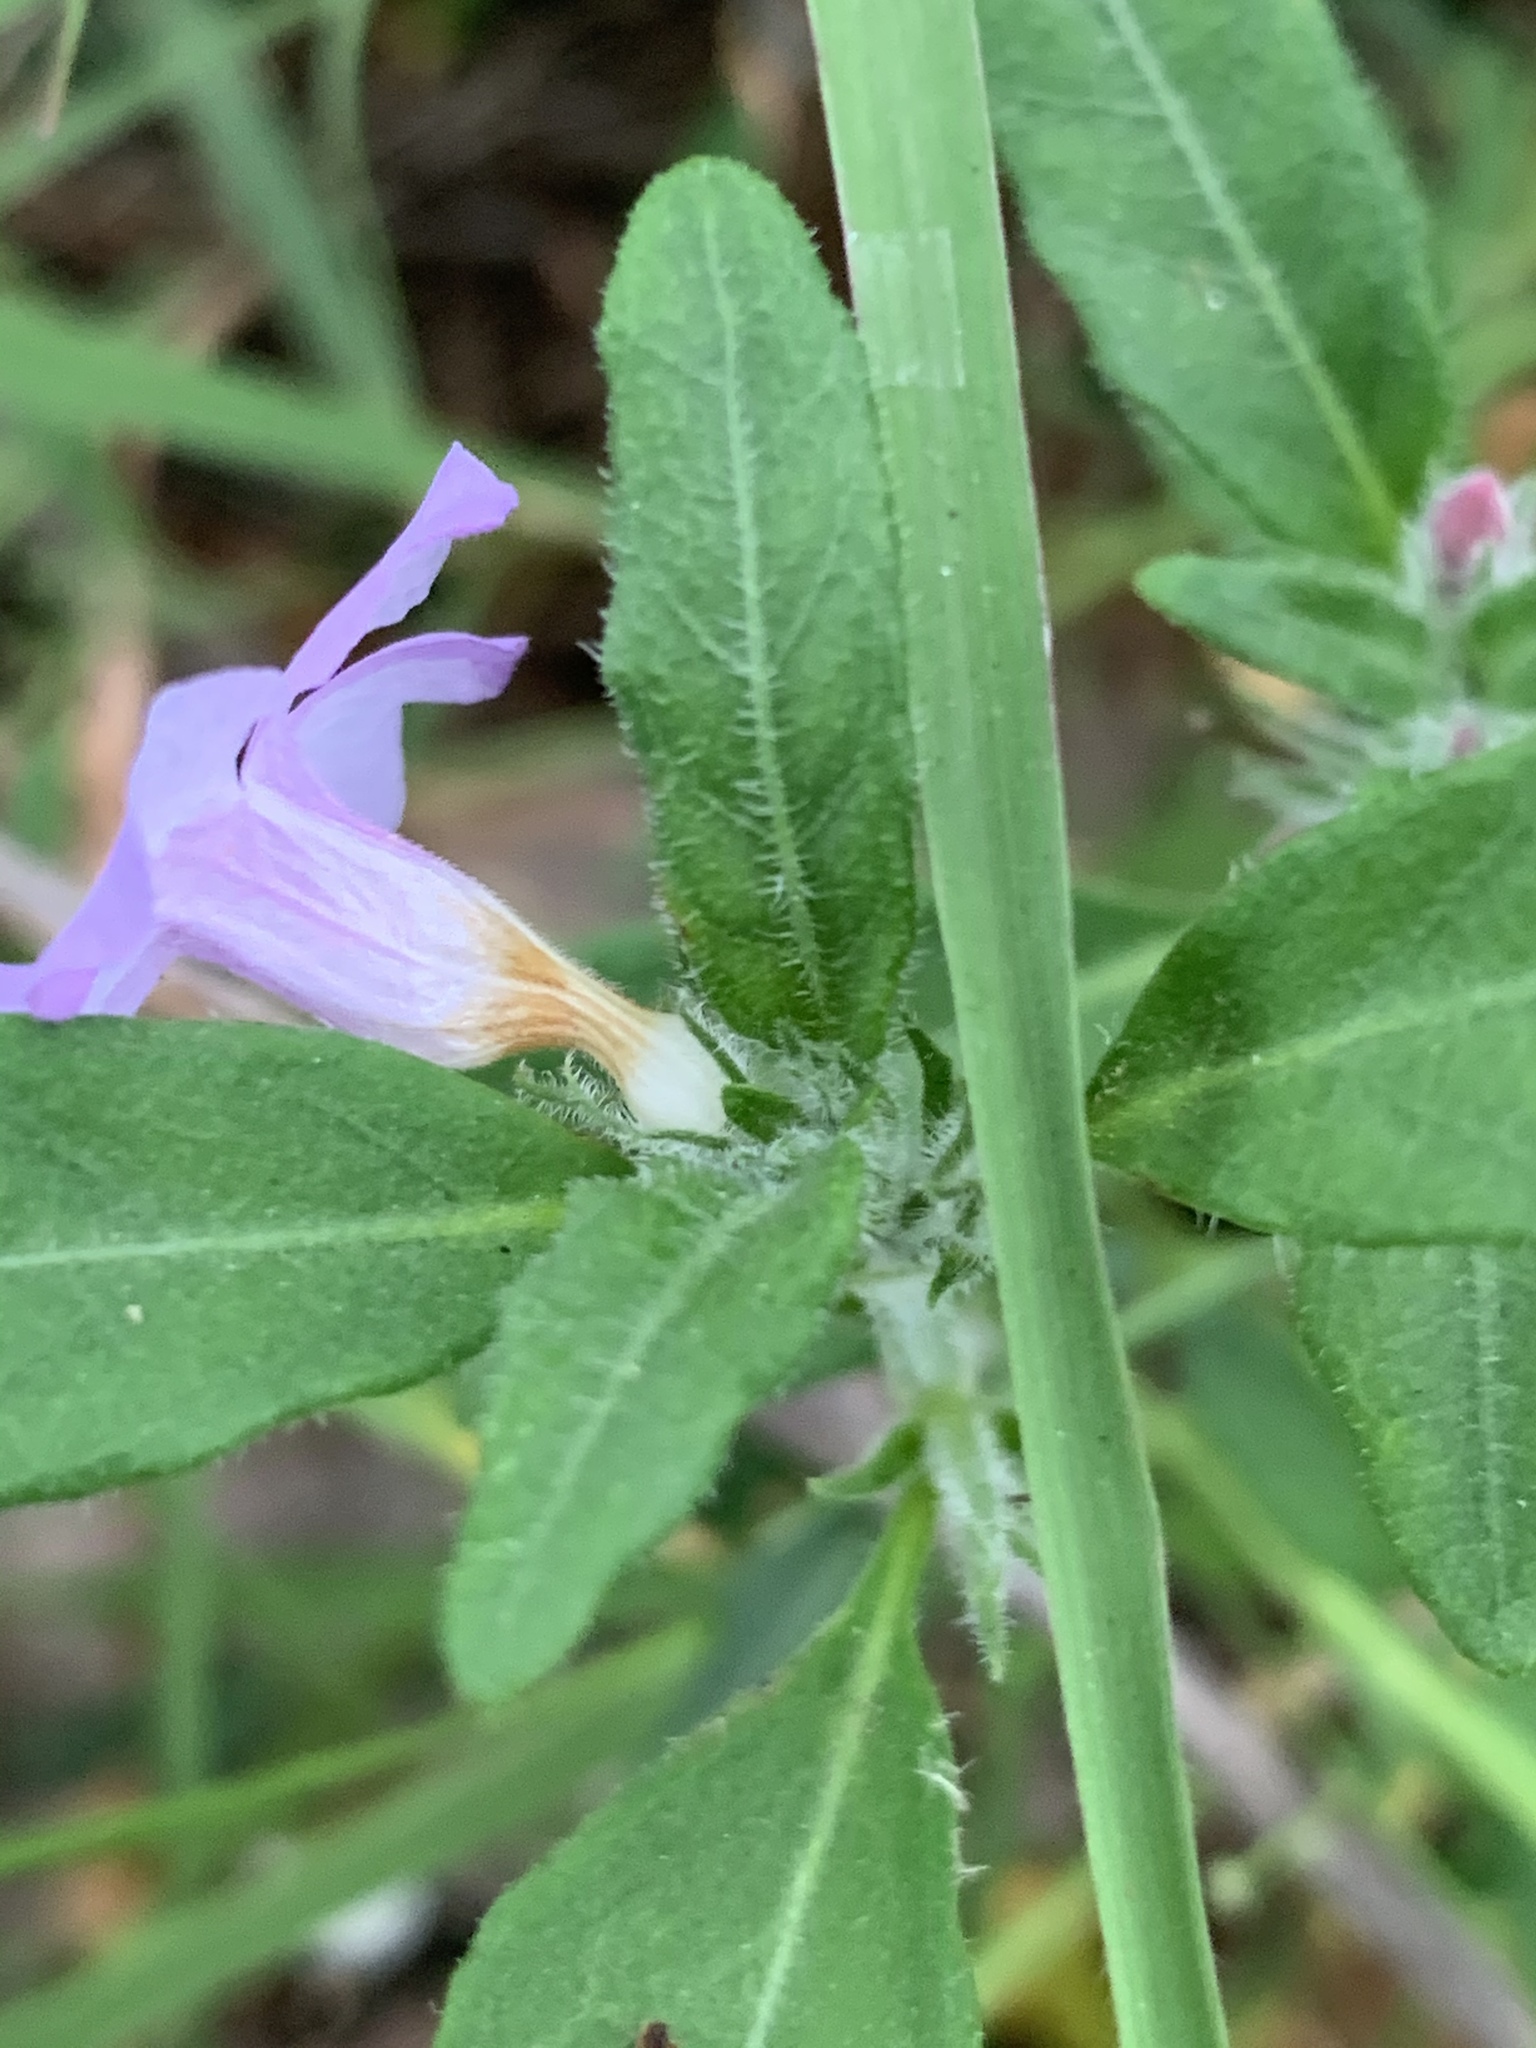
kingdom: Plantae
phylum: Tracheophyta
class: Magnoliopsida
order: Lamiales
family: Acanthaceae
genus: Brunoniella
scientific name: Brunoniella australis
